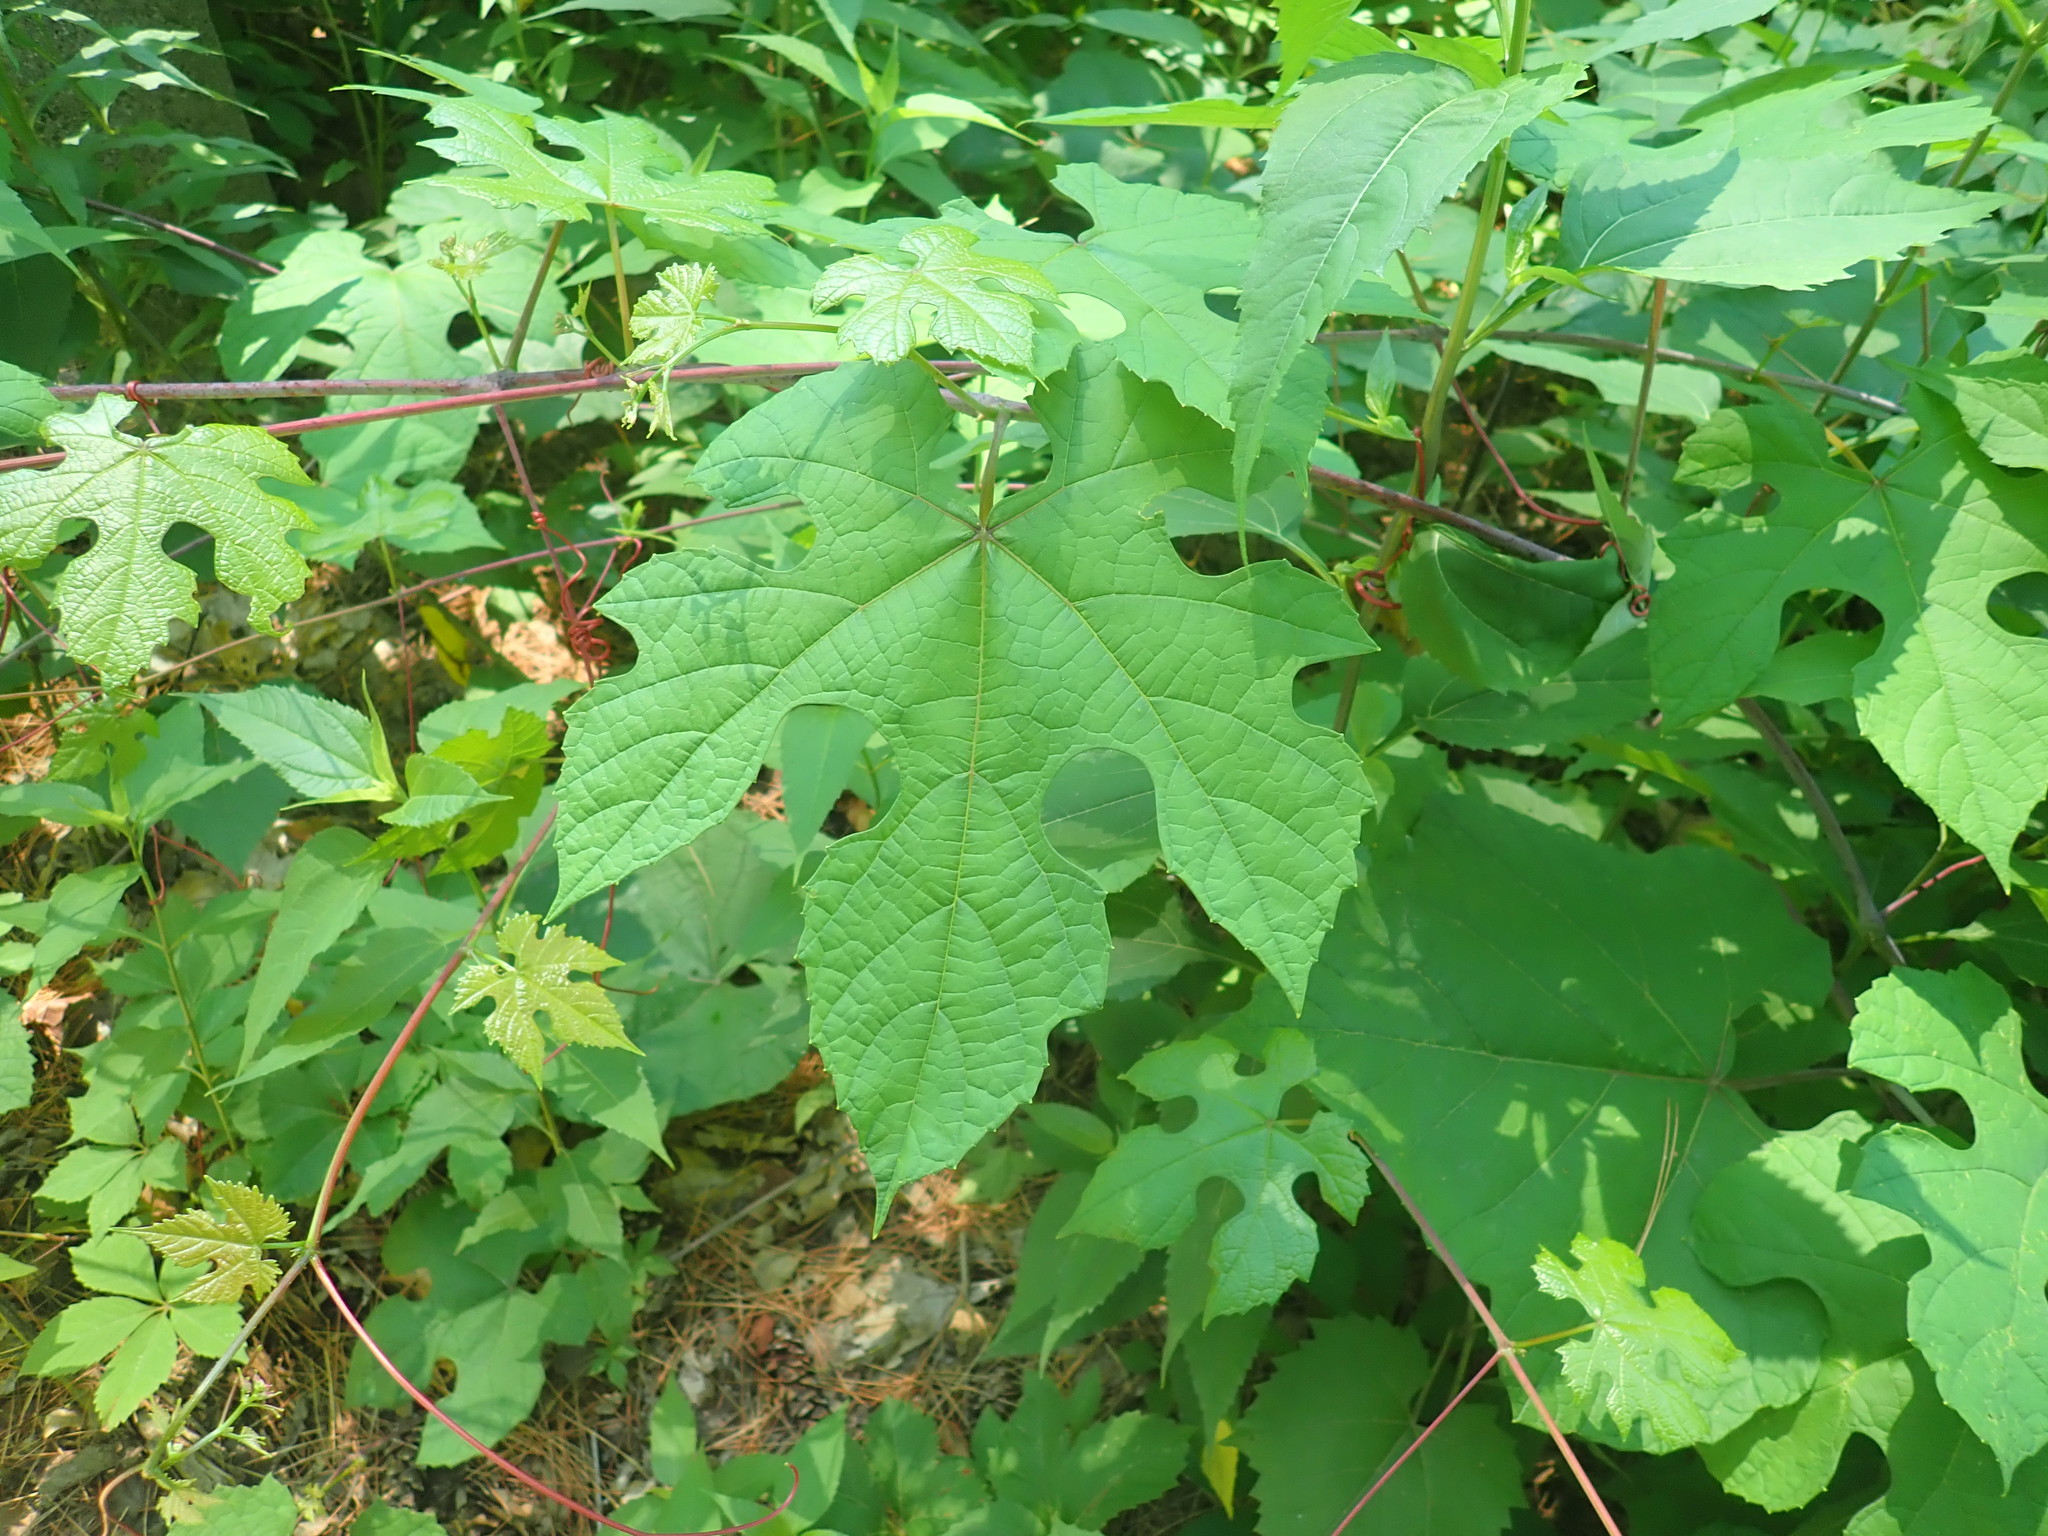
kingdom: Plantae
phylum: Tracheophyta
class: Magnoliopsida
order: Vitales
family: Vitaceae
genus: Vitis
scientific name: Vitis aestivalis
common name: Pigeon grape
